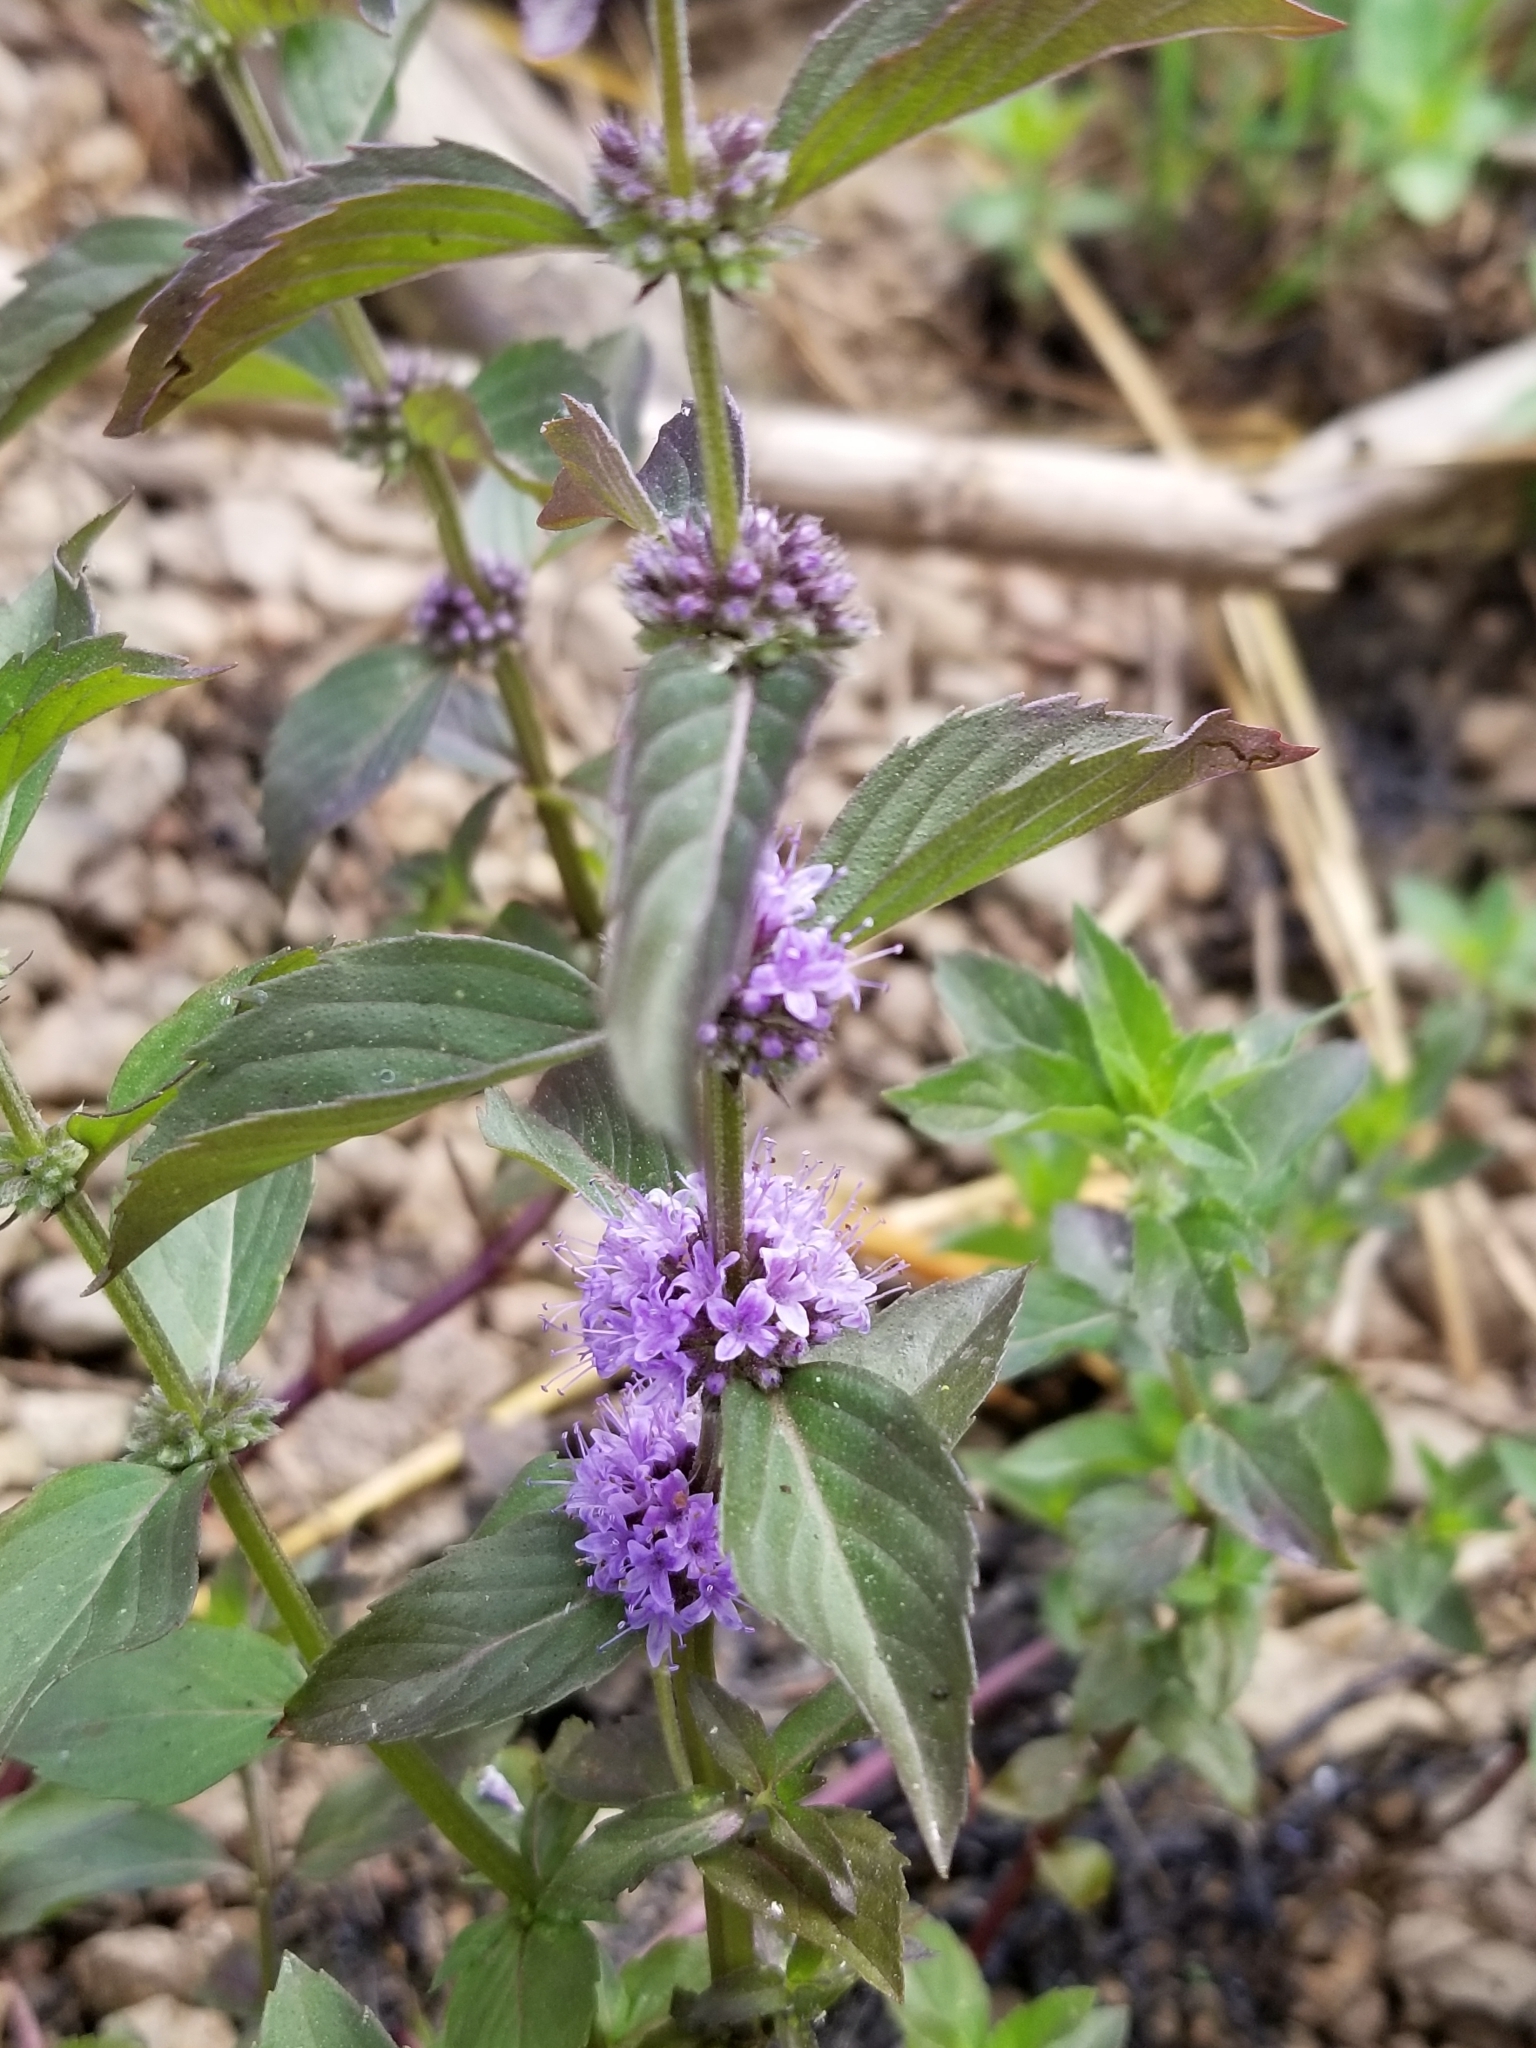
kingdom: Plantae
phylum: Tracheophyta
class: Magnoliopsida
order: Lamiales
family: Lamiaceae
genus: Mentha
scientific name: Mentha canadensis
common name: American corn mint
